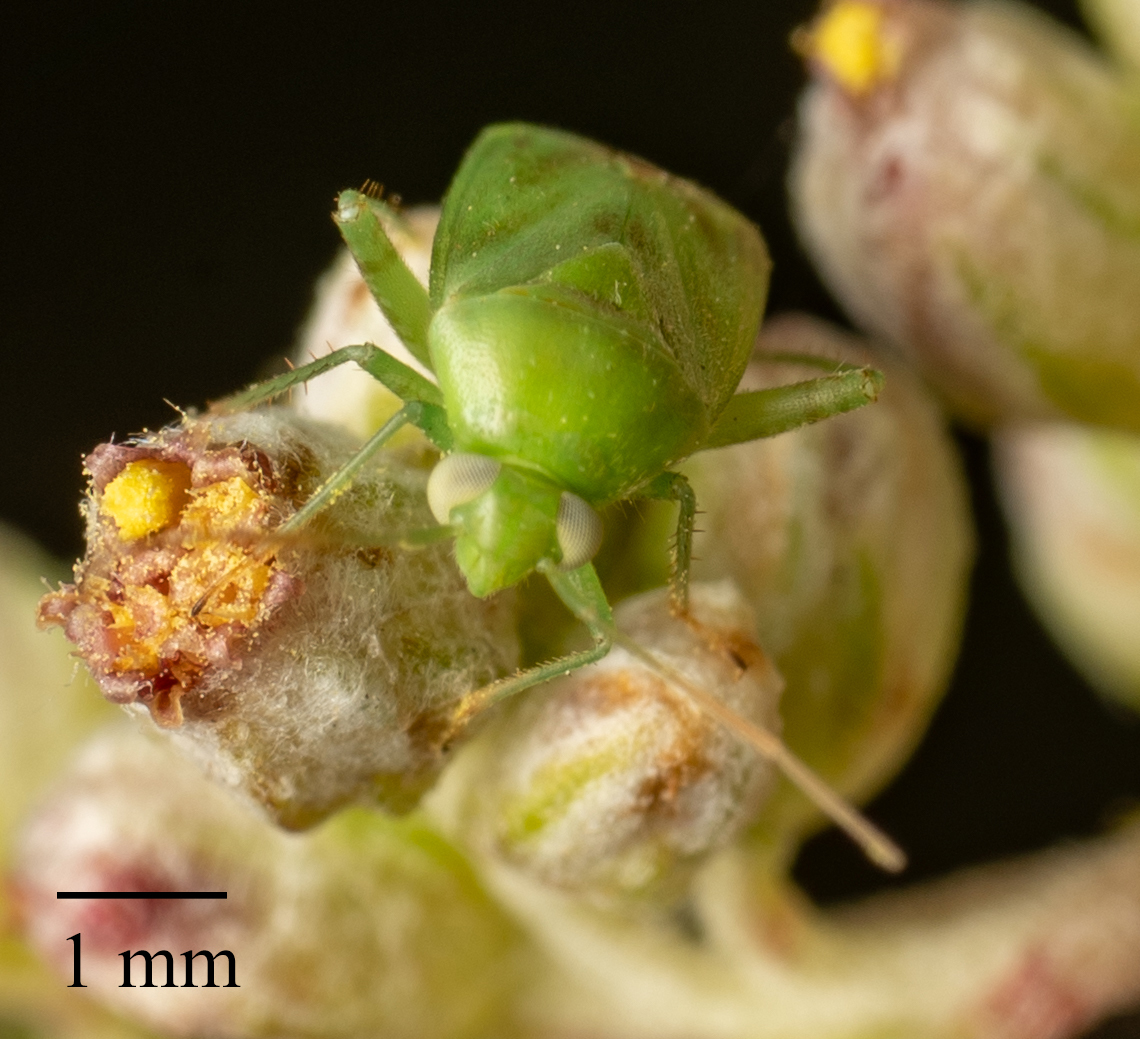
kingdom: Animalia
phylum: Arthropoda
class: Insecta
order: Hemiptera
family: Miridae
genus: Taylorilygus
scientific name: Taylorilygus apicalis
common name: Plant bug
